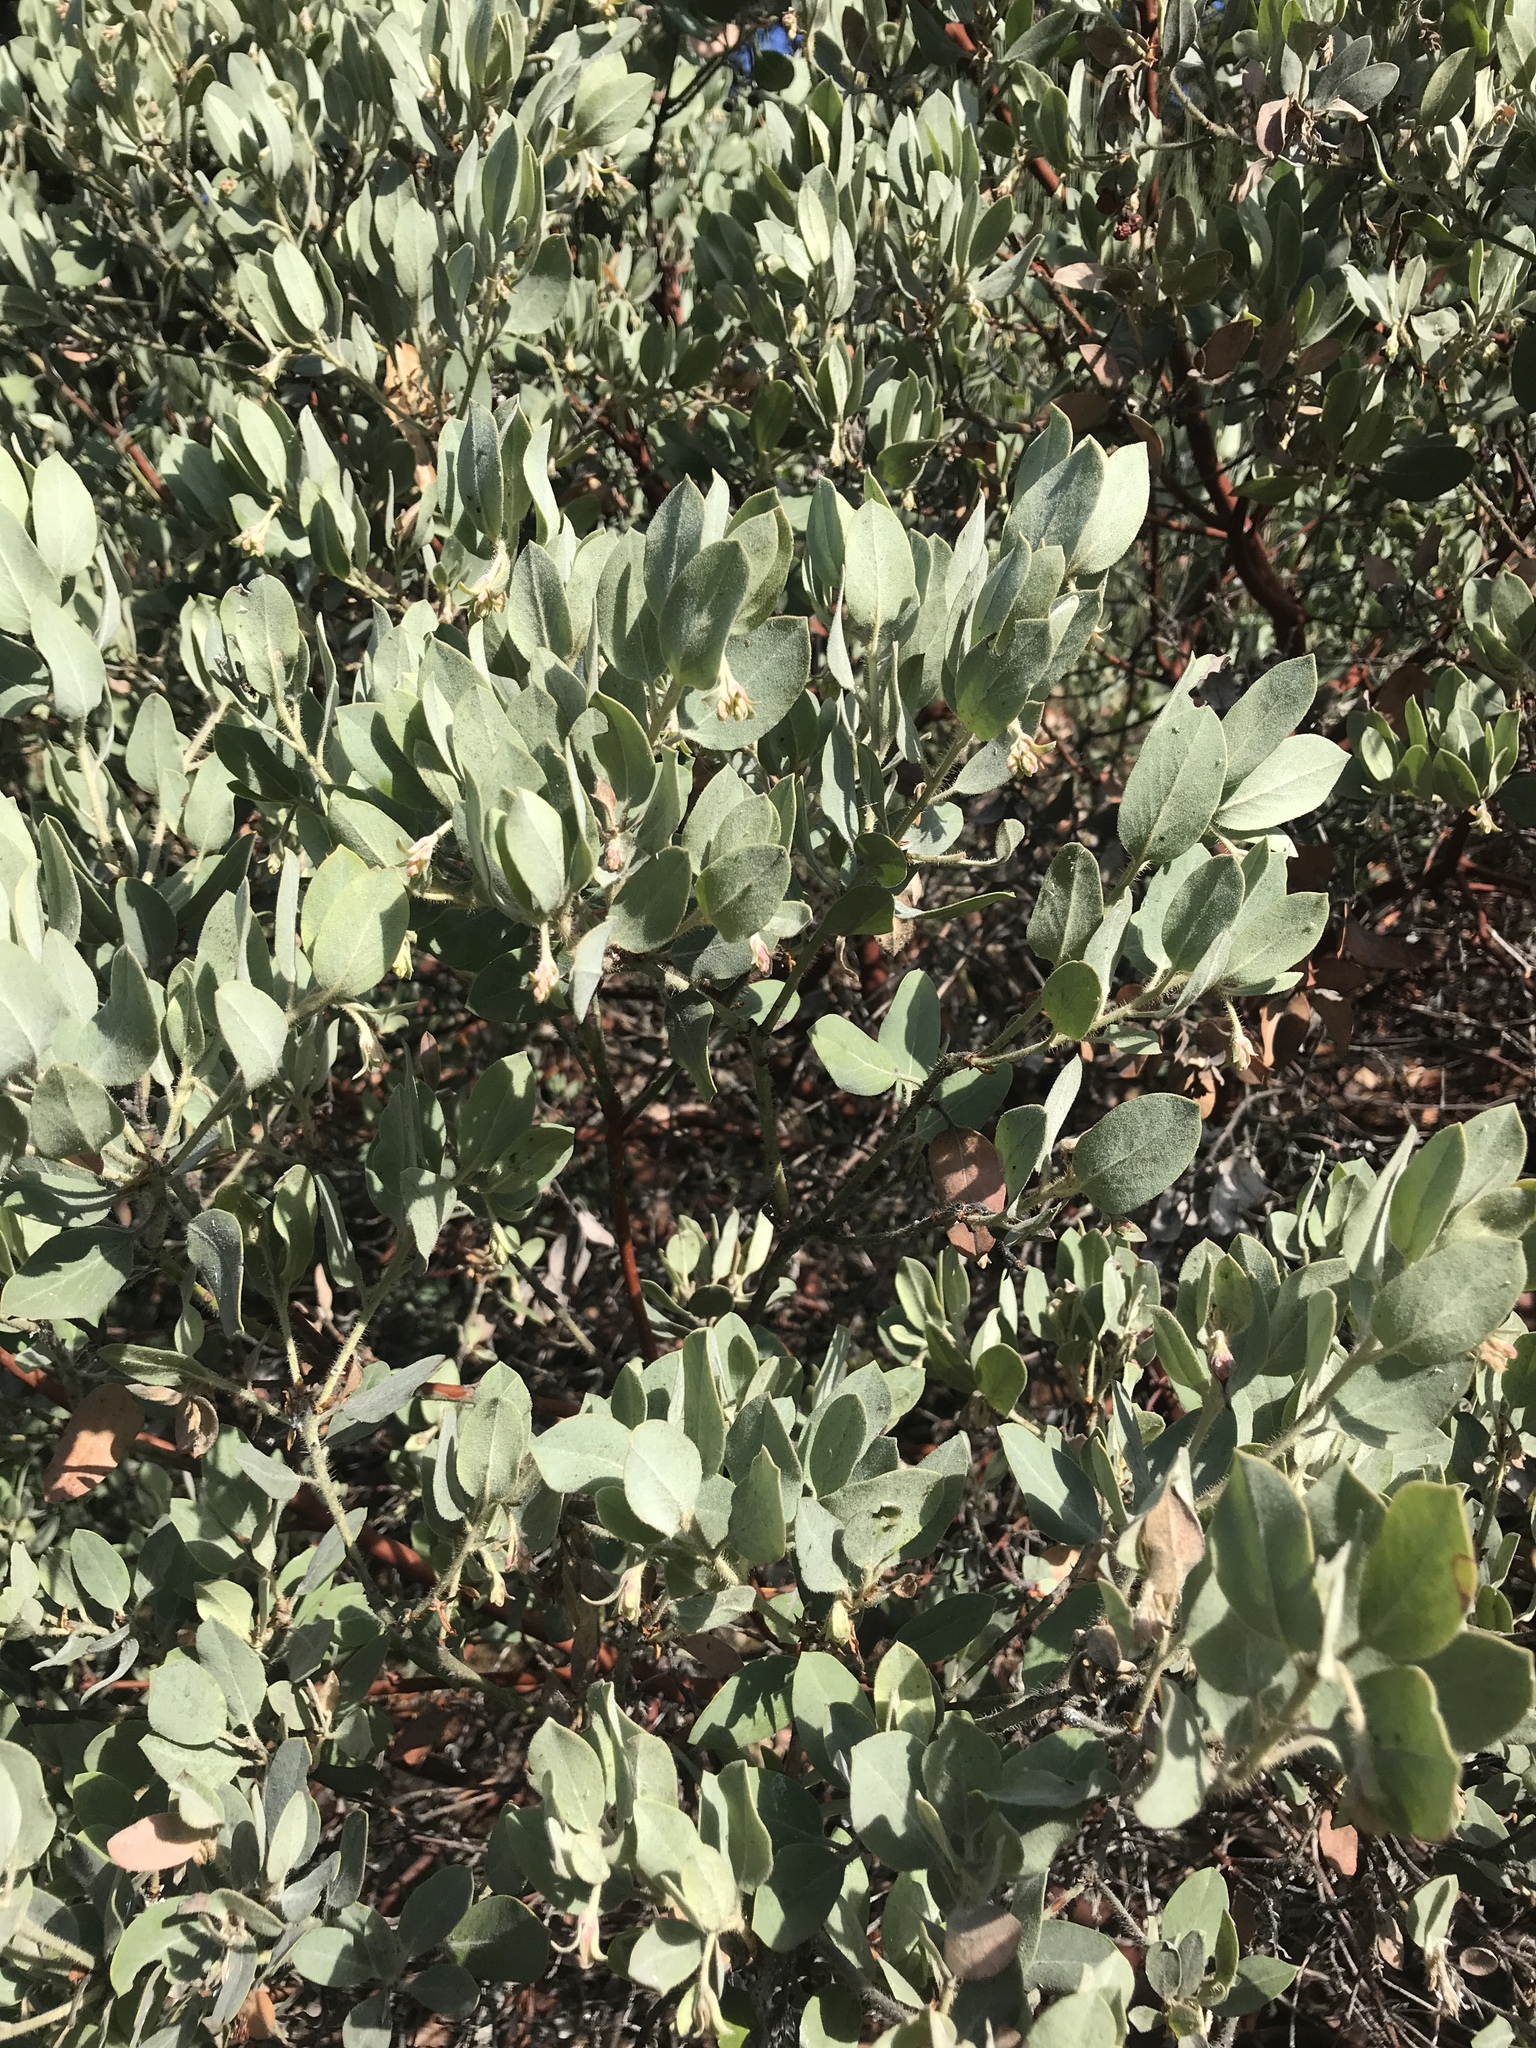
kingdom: Plantae
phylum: Tracheophyta
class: Magnoliopsida
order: Ericales
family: Ericaceae
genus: Arctostaphylos
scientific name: Arctostaphylos columbiana
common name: Bristly bearberry
